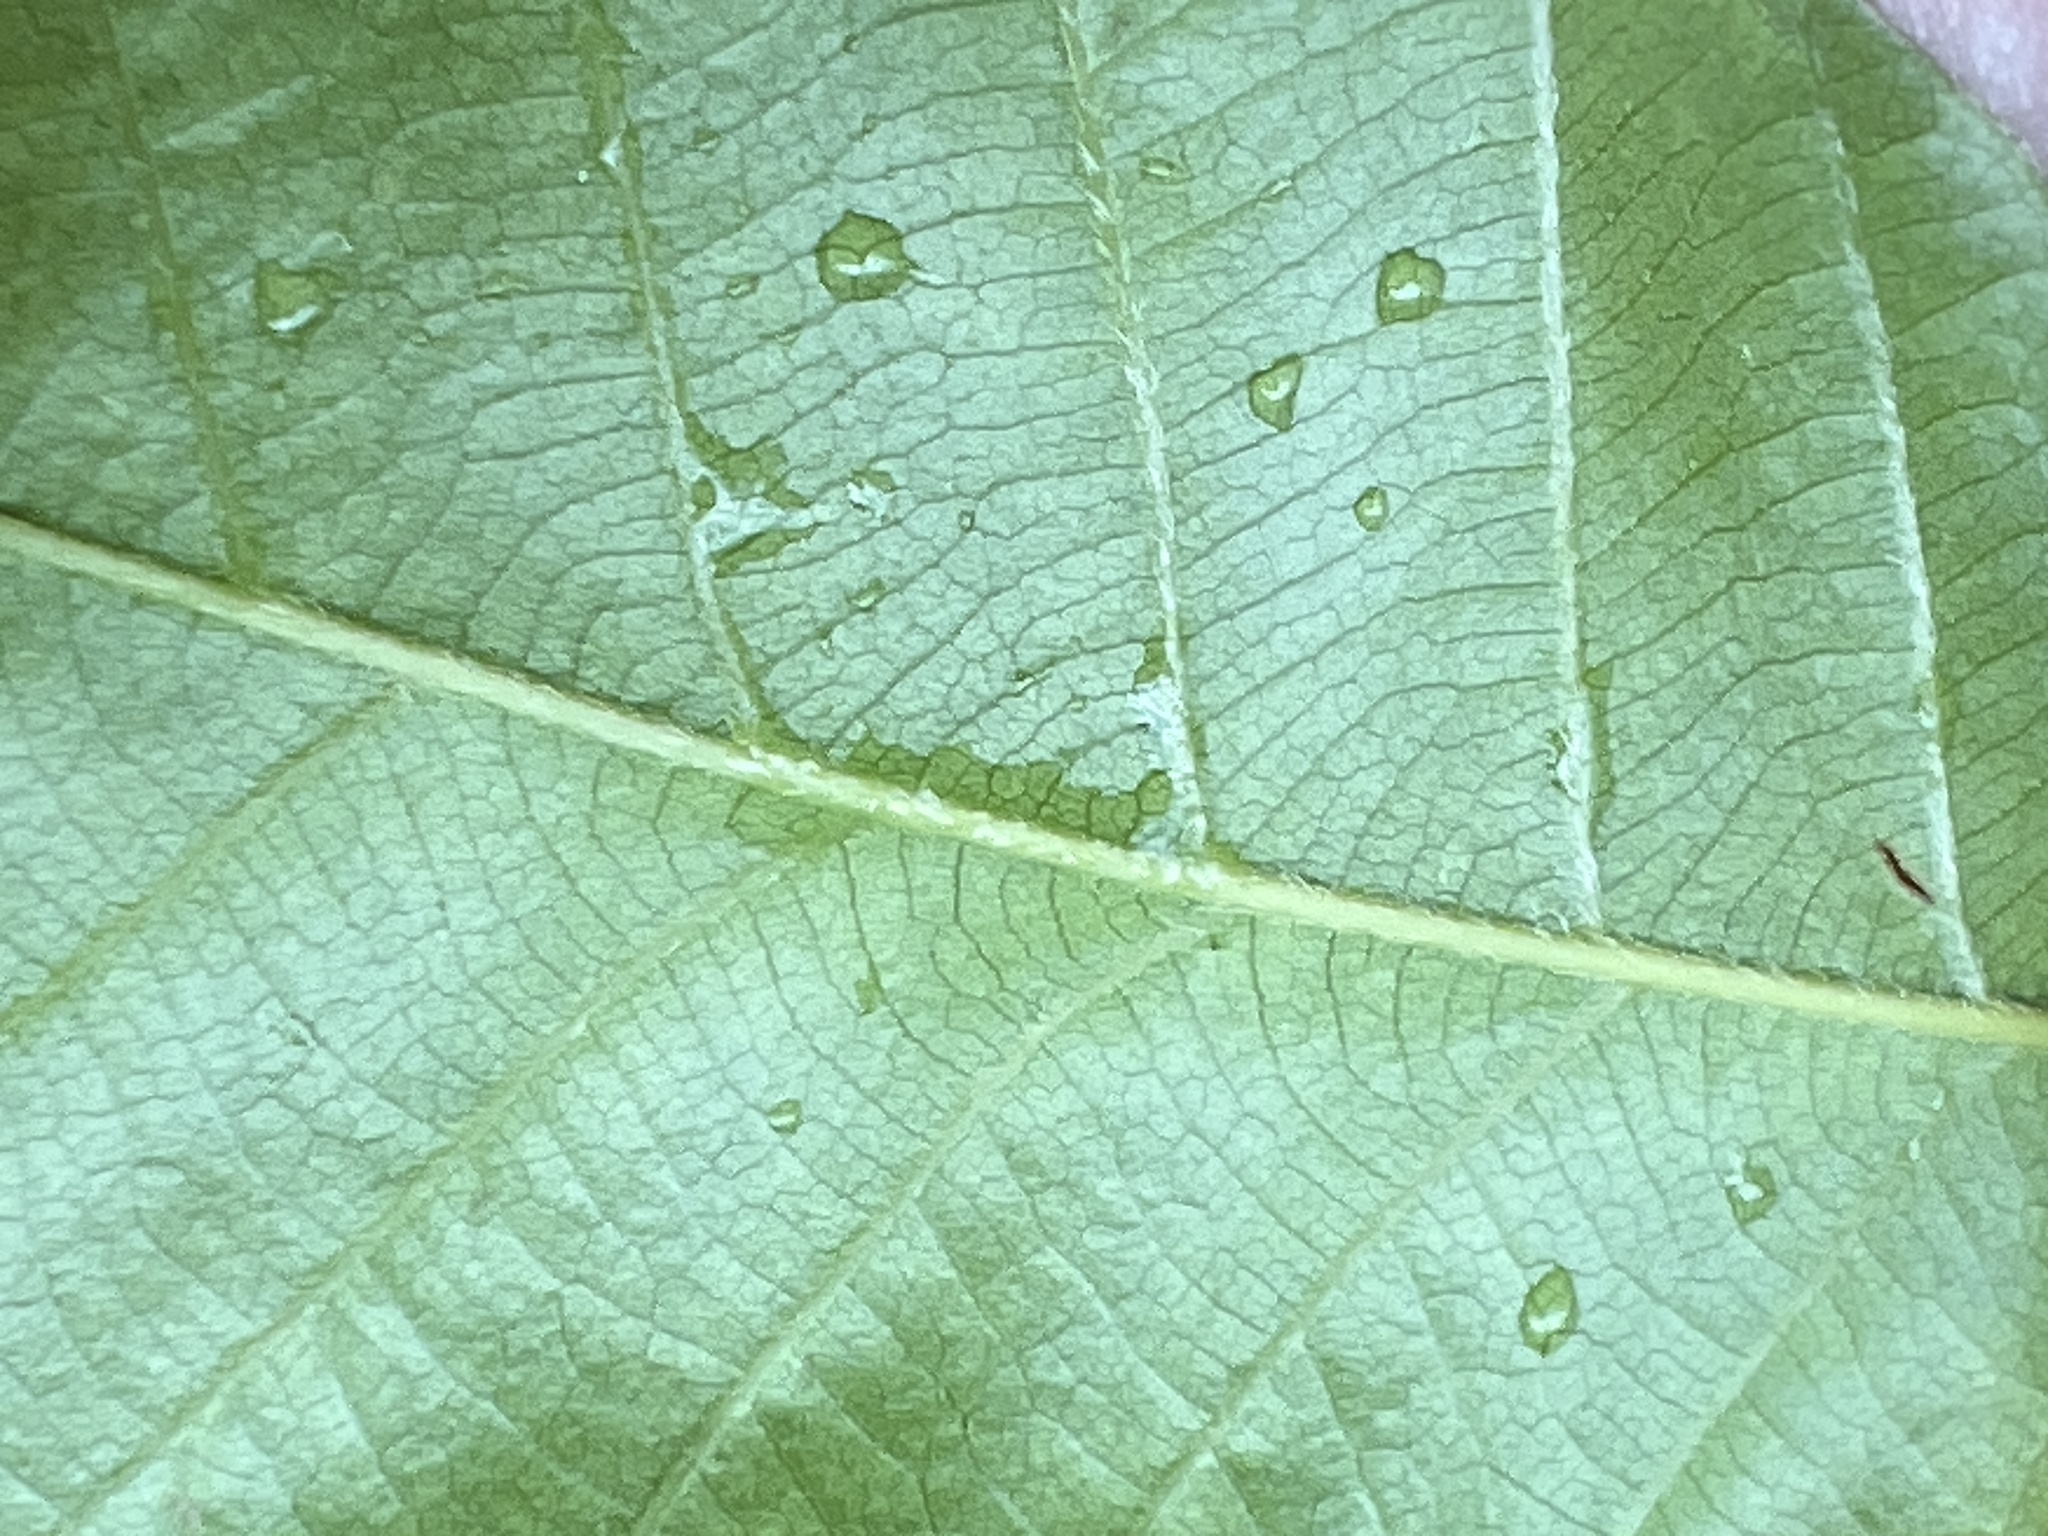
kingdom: Plantae
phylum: Tracheophyta
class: Magnoliopsida
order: Fagales
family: Fagaceae
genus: Castanea
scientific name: Castanea pumila
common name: Chinkapin
